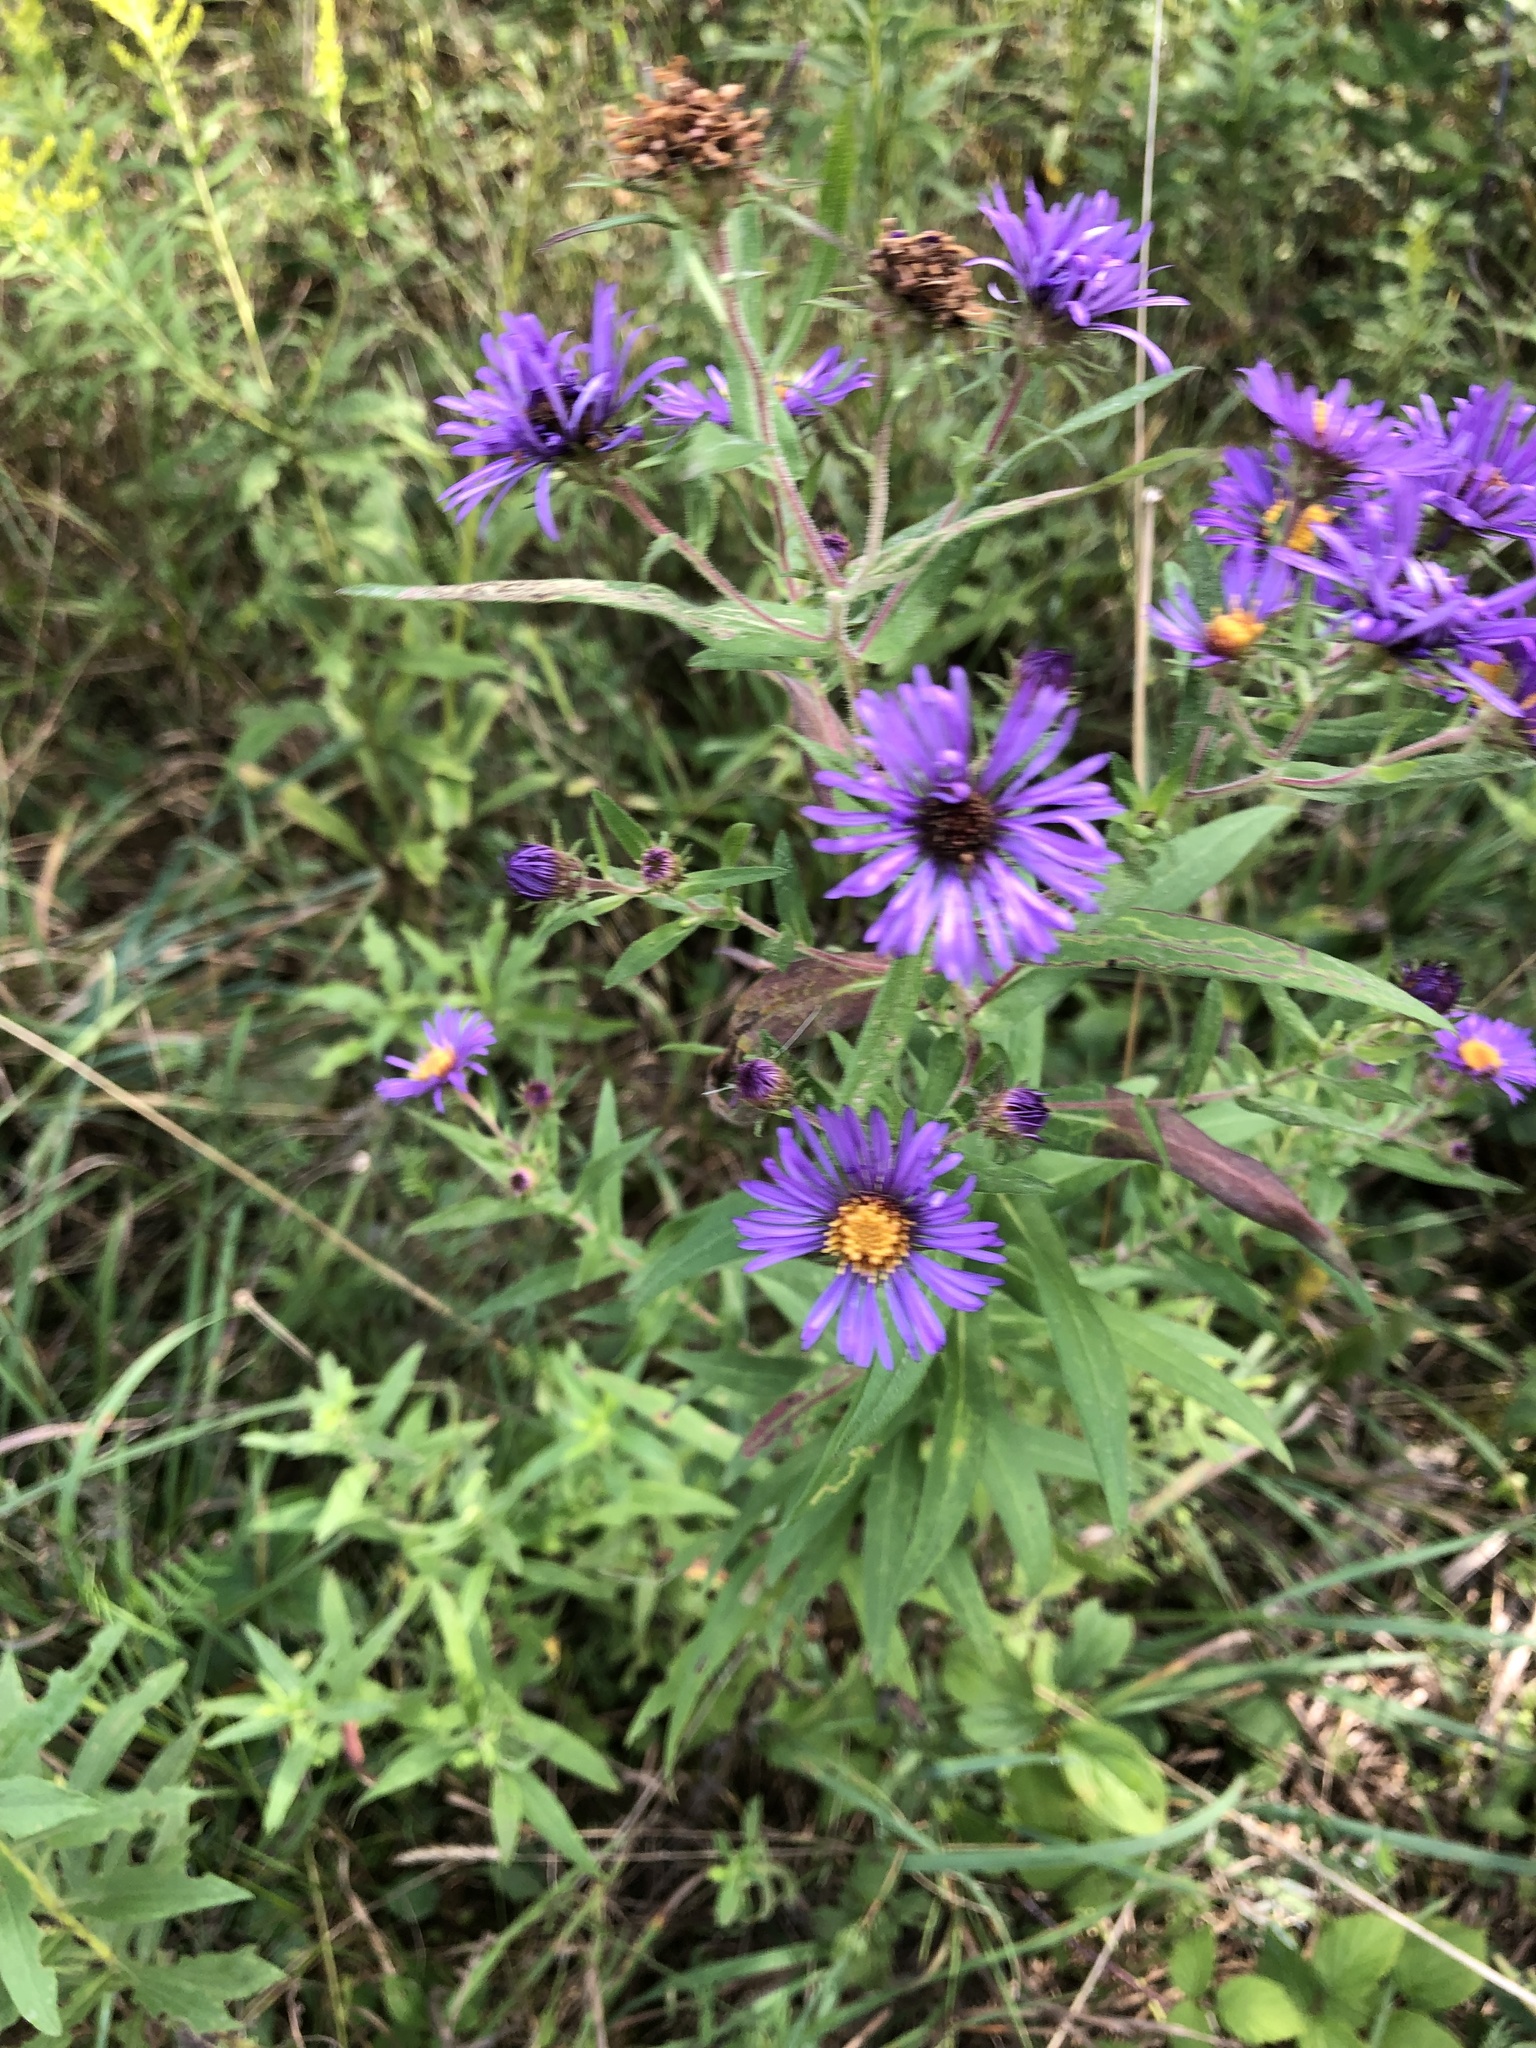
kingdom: Plantae
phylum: Tracheophyta
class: Magnoliopsida
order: Asterales
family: Asteraceae
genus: Symphyotrichum
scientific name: Symphyotrichum novae-angliae
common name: Michaelmas daisy
